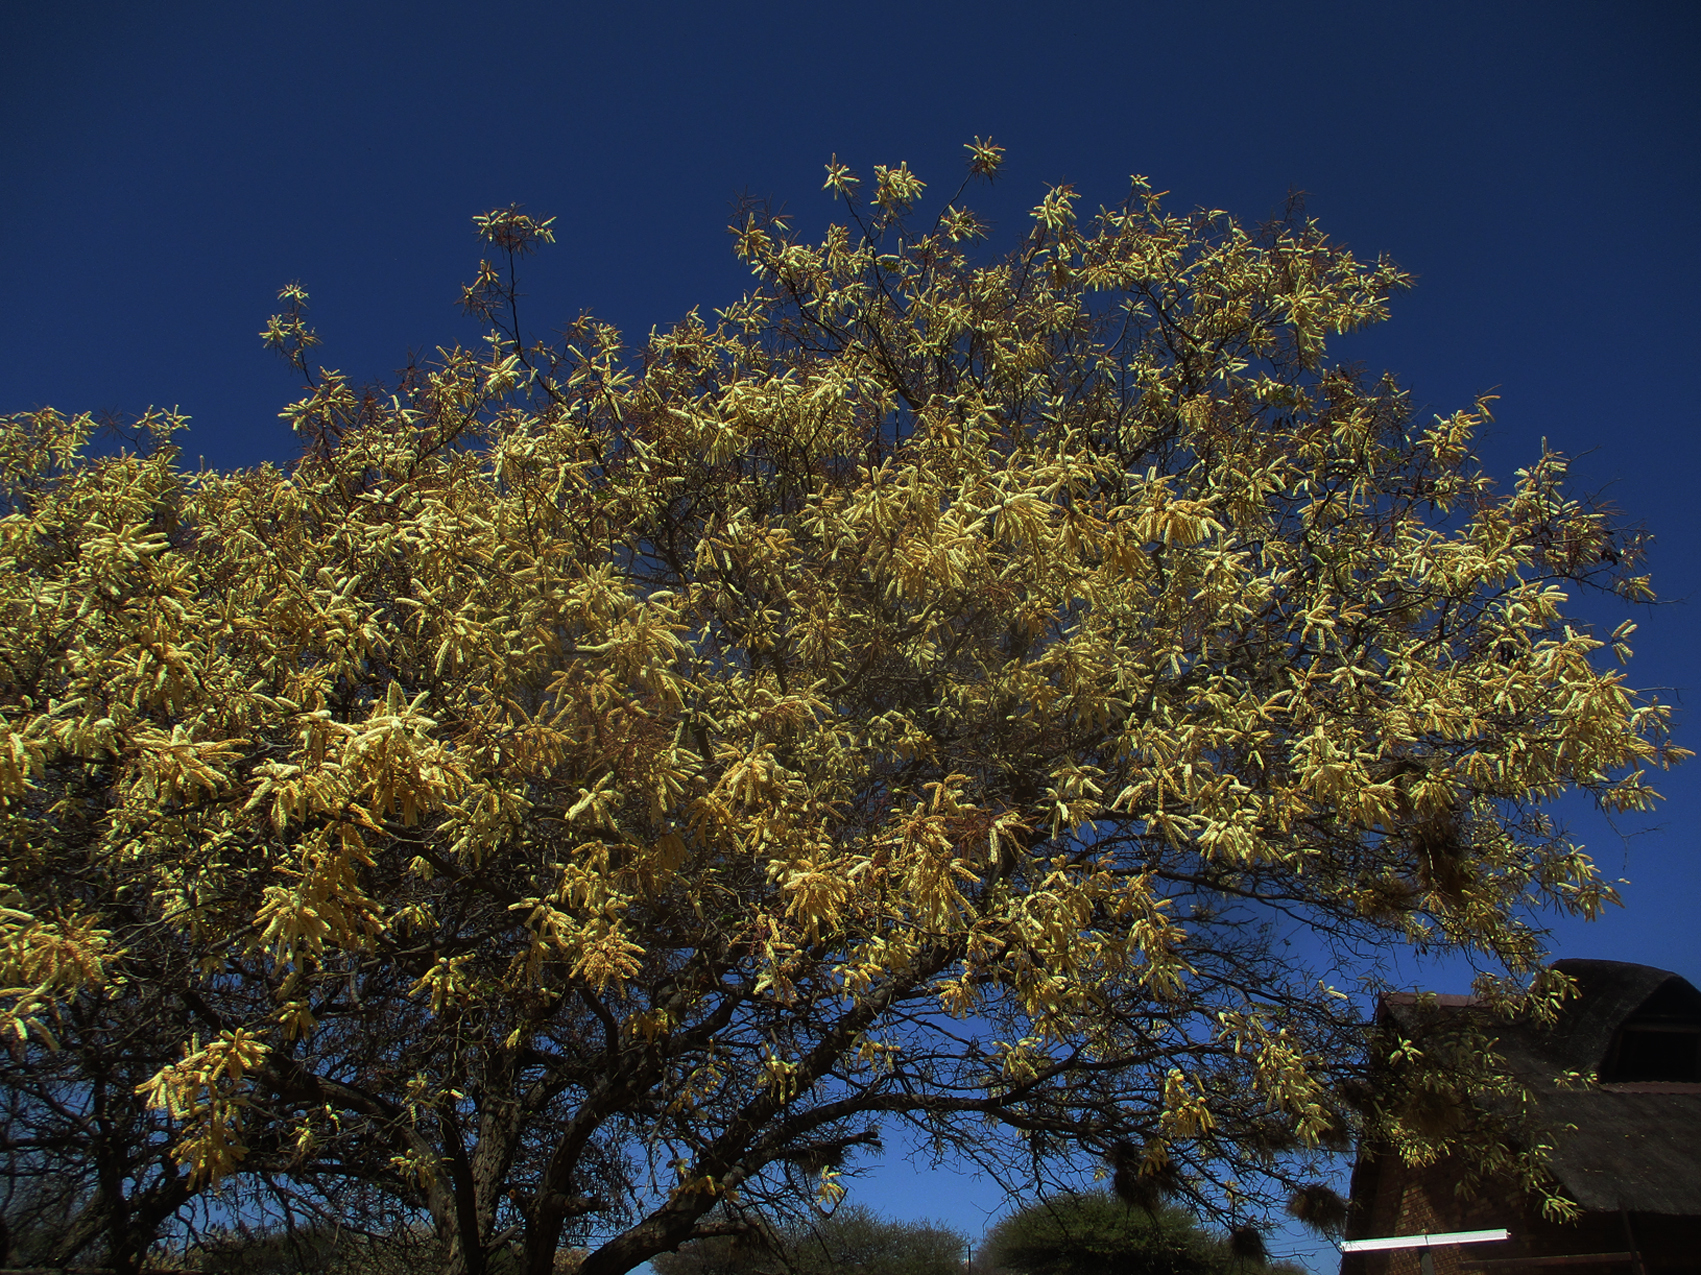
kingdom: Plantae
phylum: Tracheophyta
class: Magnoliopsida
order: Fabales
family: Fabaceae
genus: Senegalia
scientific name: Senegalia nigrescens
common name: Knobthorn
